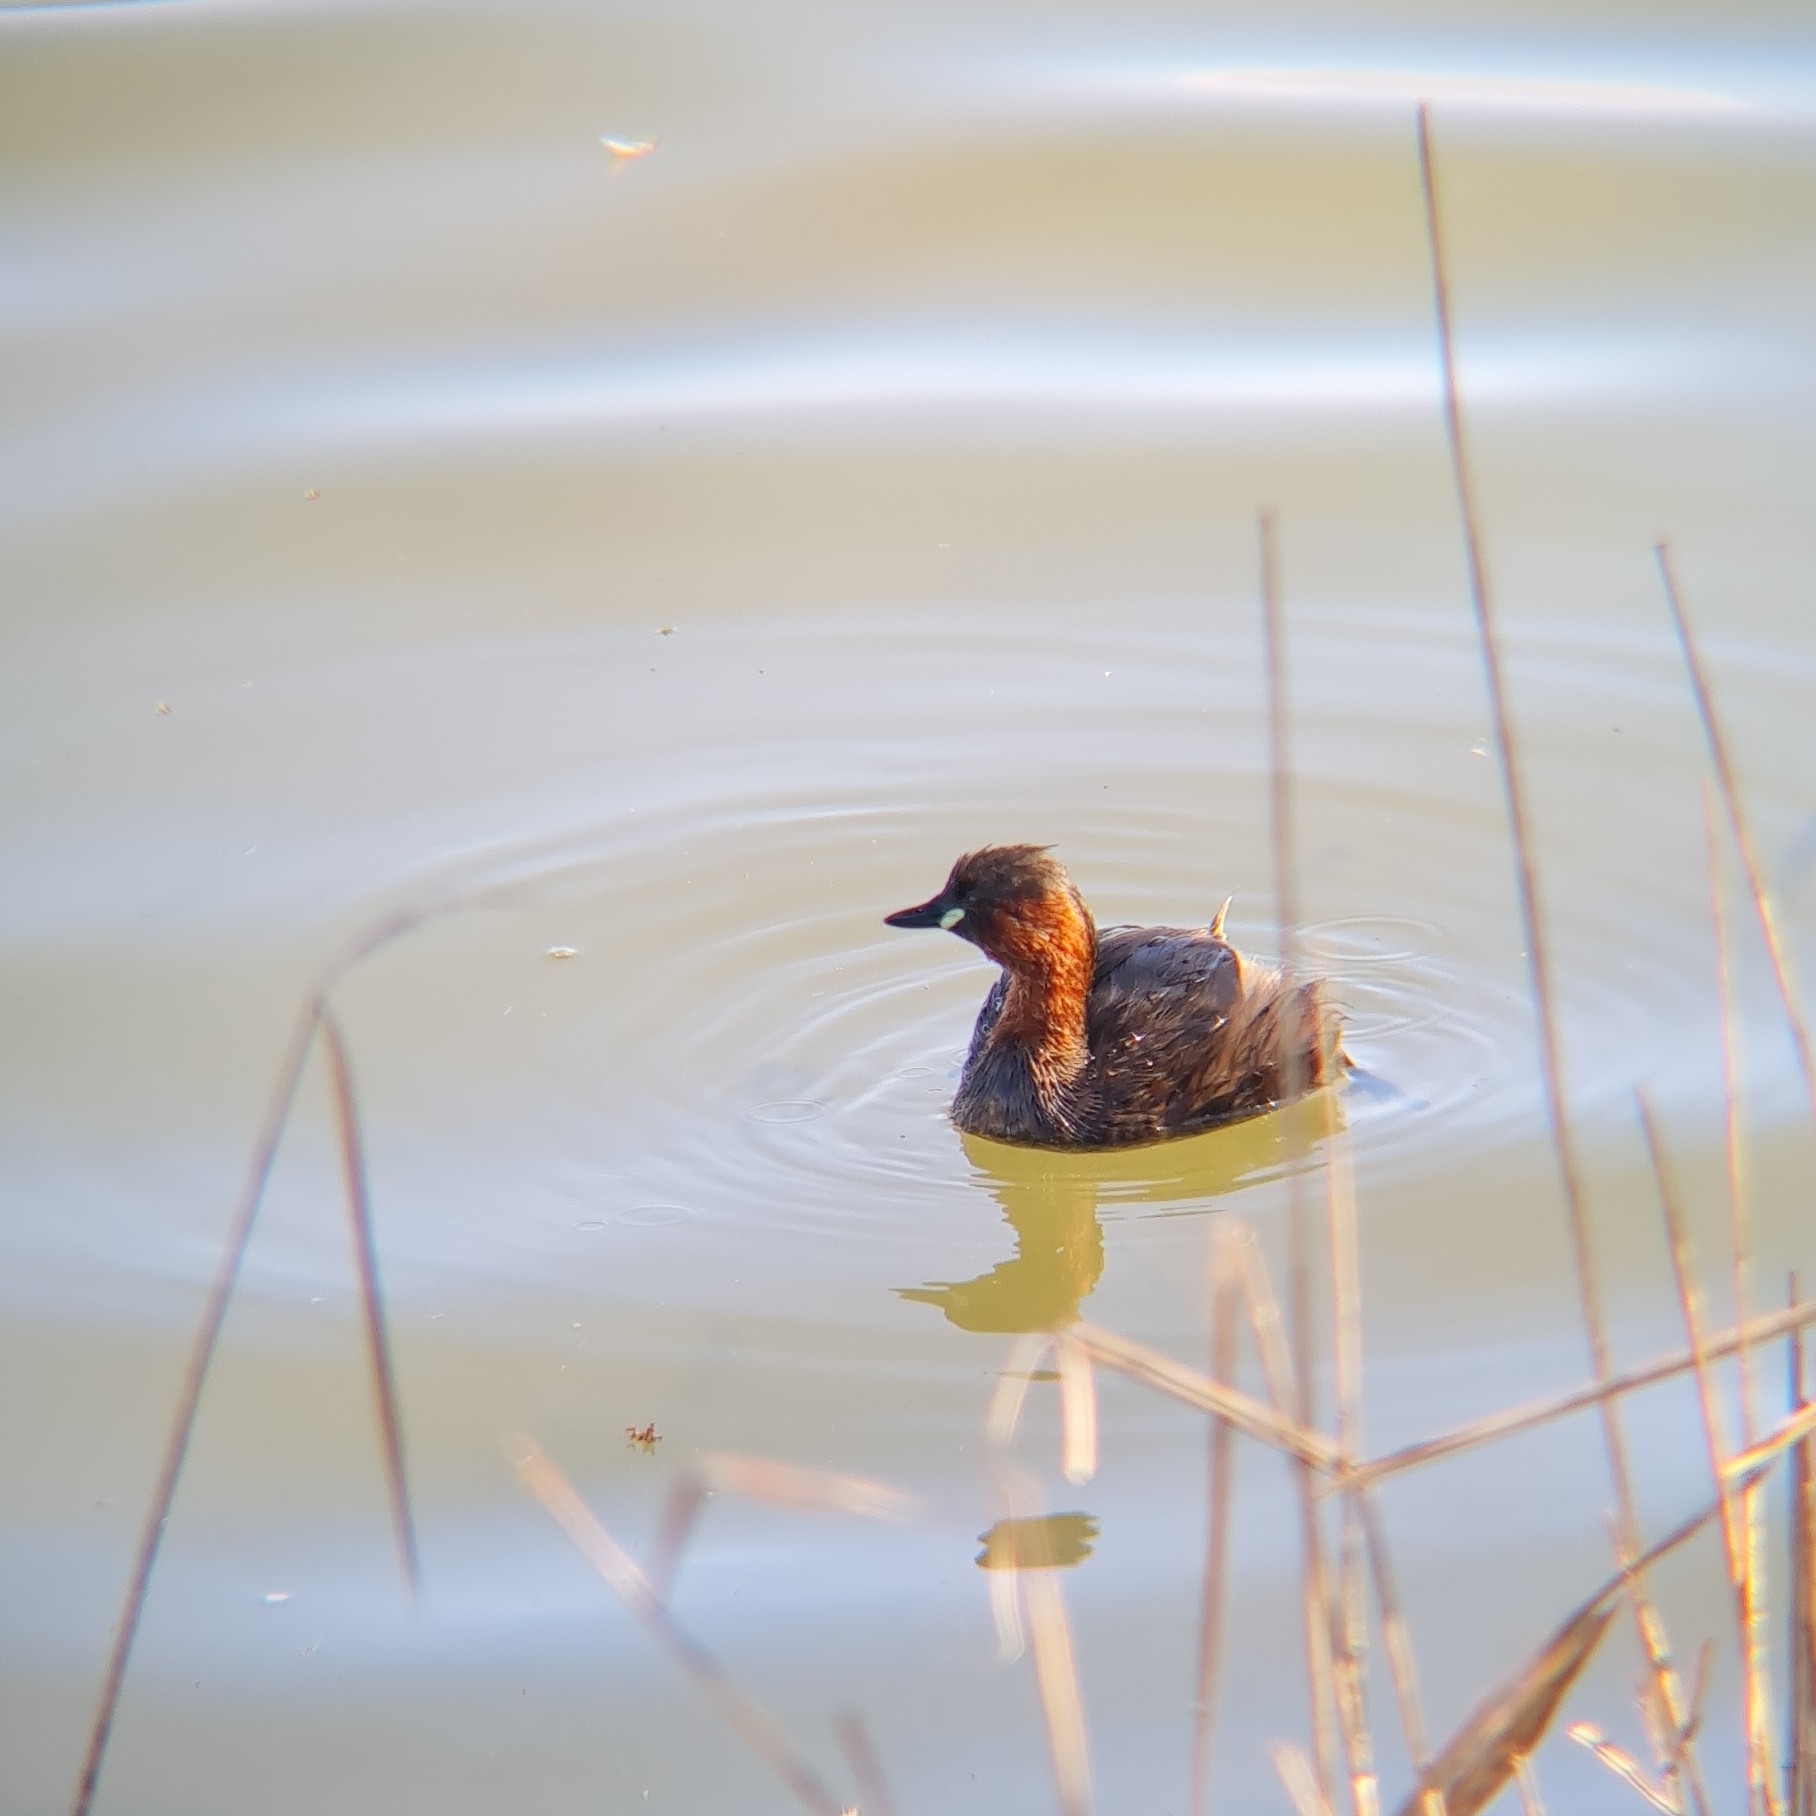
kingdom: Animalia
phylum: Chordata
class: Aves
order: Podicipediformes
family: Podicipedidae
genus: Tachybaptus
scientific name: Tachybaptus ruficollis
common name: Little grebe
